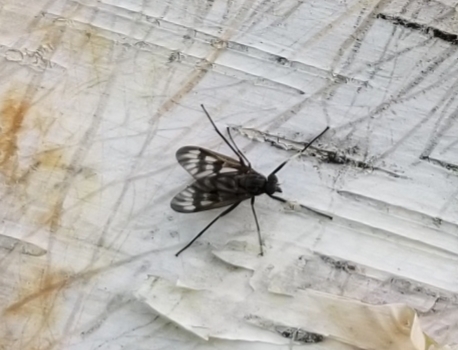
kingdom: Animalia
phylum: Arthropoda
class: Insecta
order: Diptera
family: Rhagionidae
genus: Rhagio
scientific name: Rhagio mystaceus
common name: Common snipe fly
